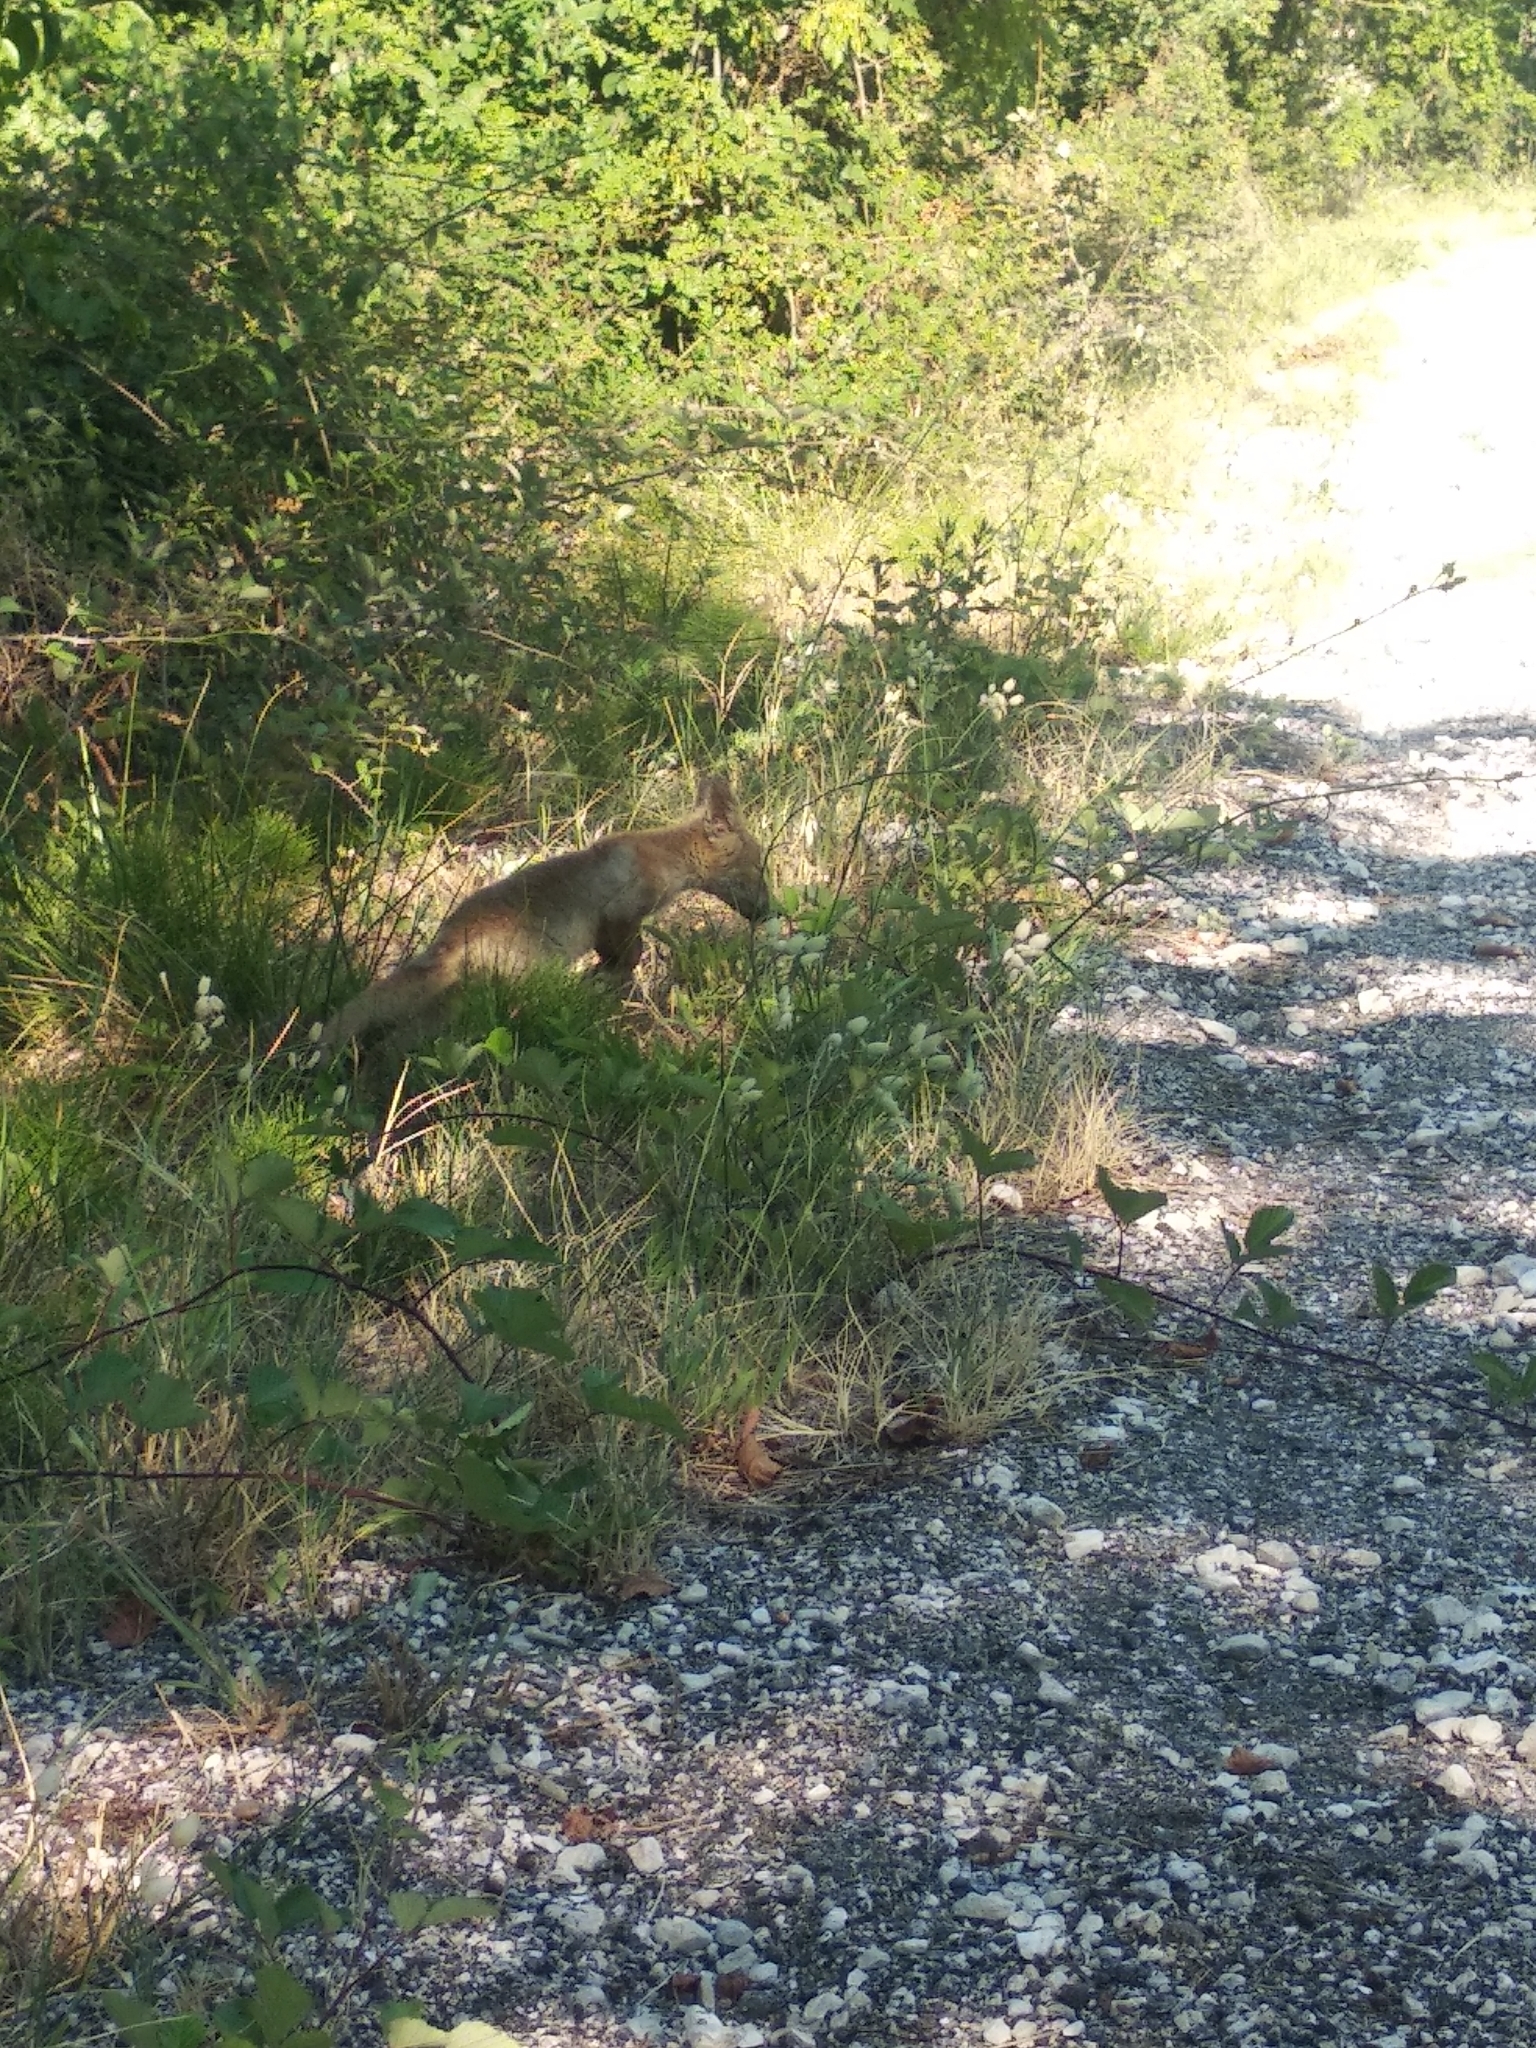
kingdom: Animalia
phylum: Chordata
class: Mammalia
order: Carnivora
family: Canidae
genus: Vulpes
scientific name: Vulpes vulpes
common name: Red fox
